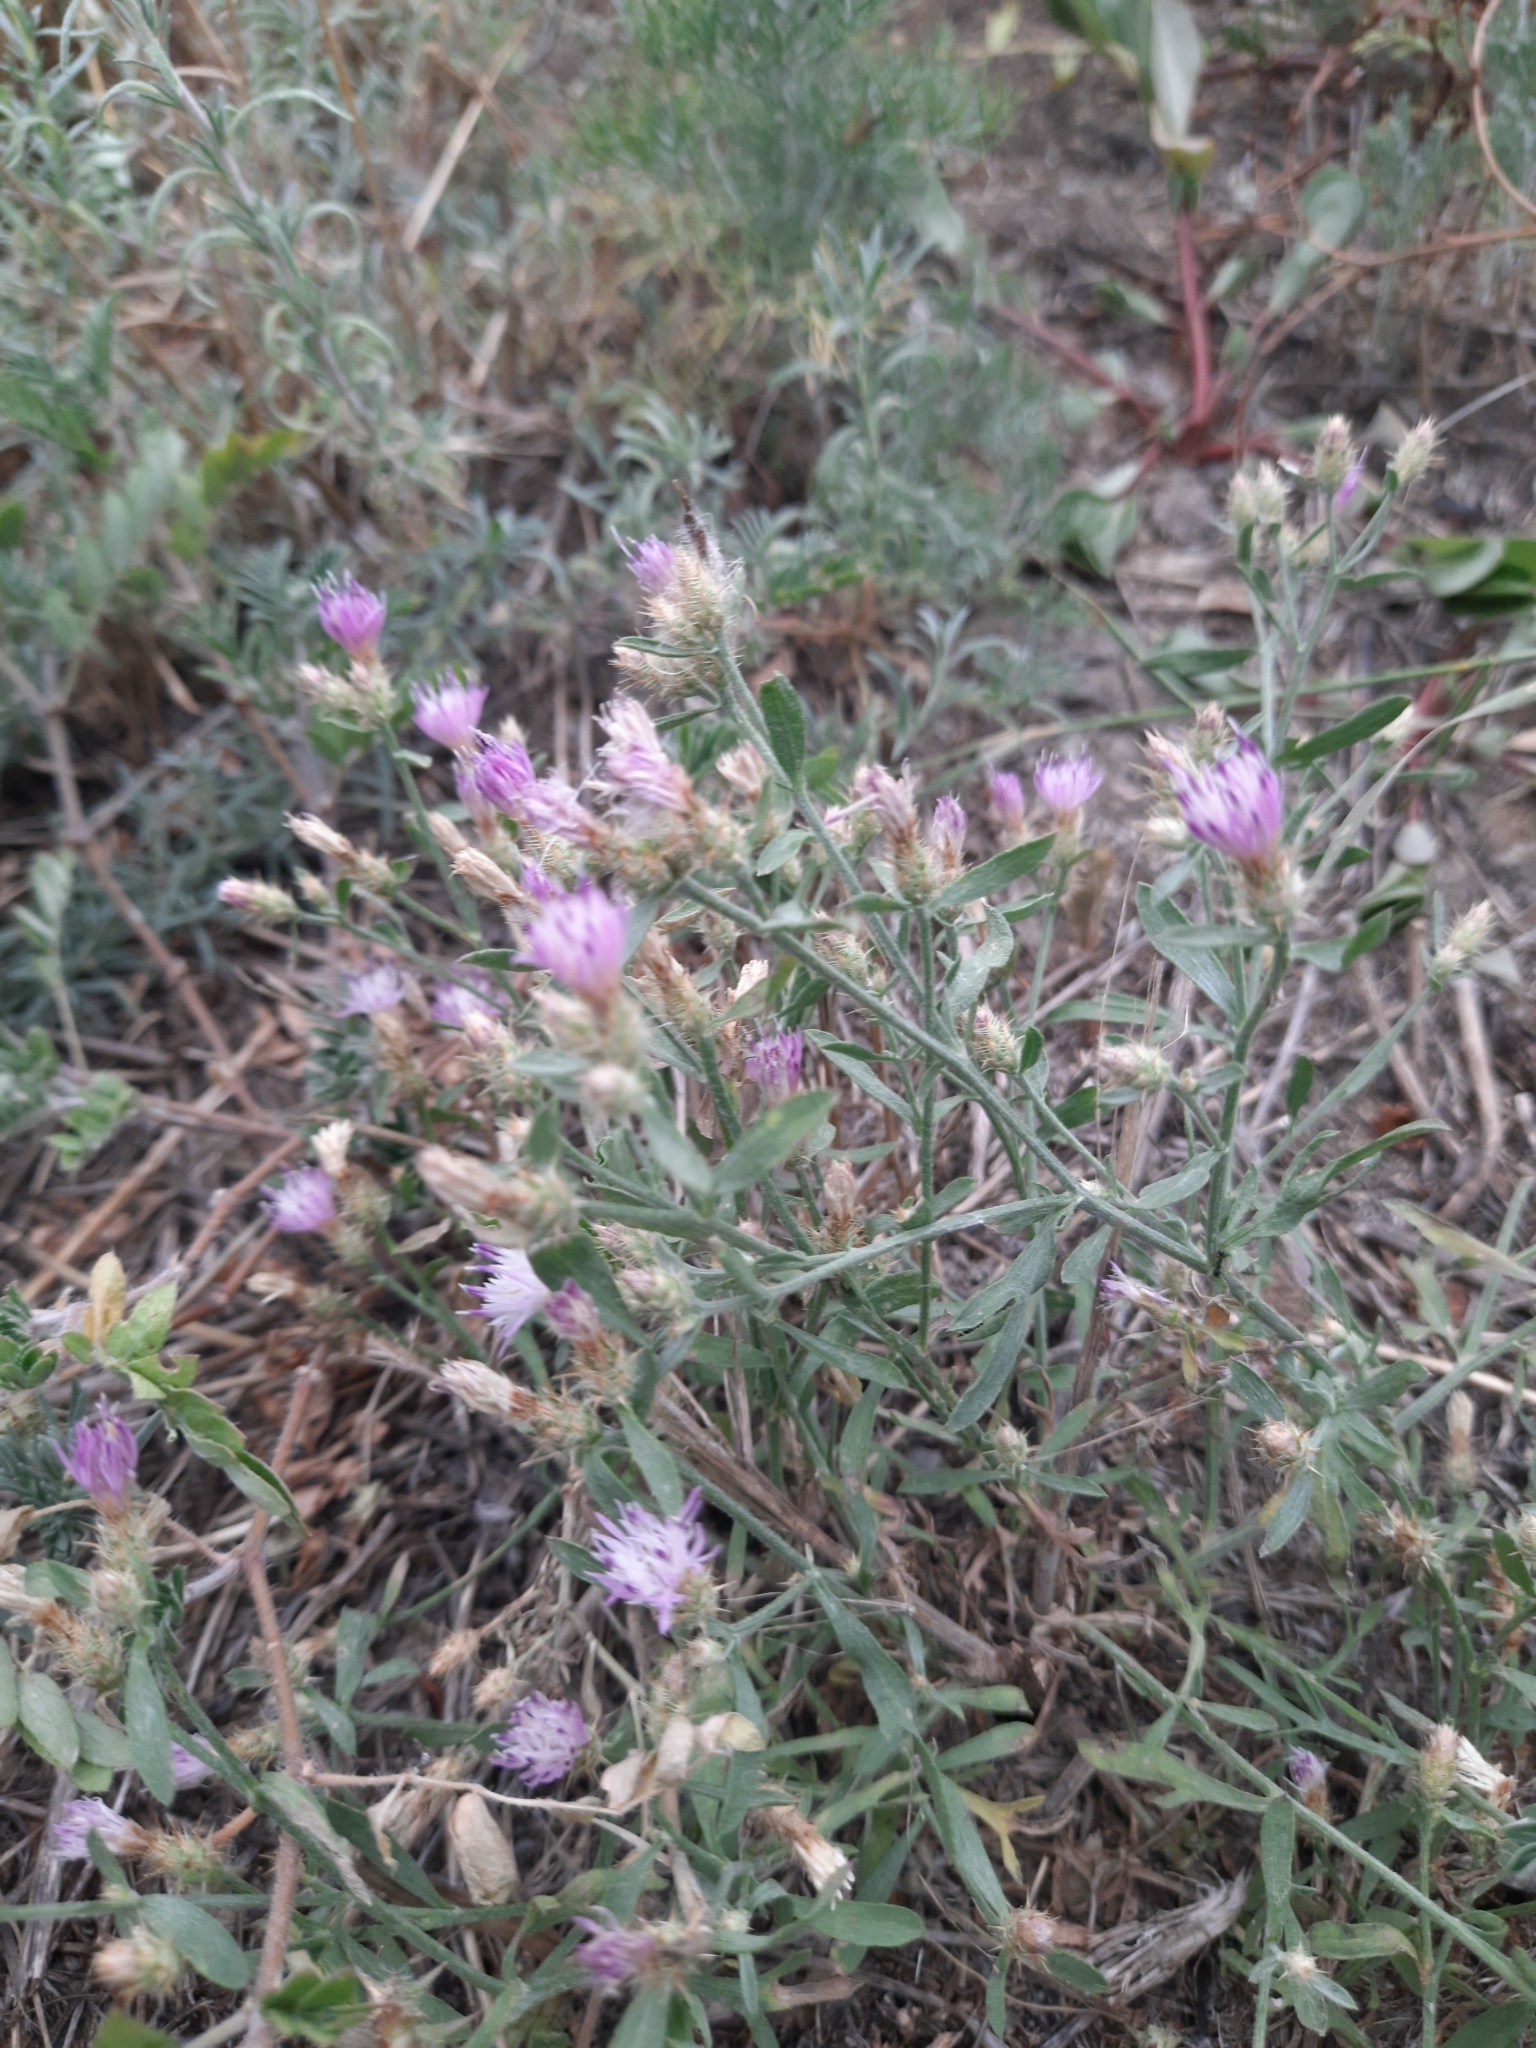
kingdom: Plantae
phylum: Tracheophyta
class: Magnoliopsida
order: Asterales
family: Asteraceae
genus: Centaurea
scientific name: Centaurea diffusa
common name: Diffuse knapweed
